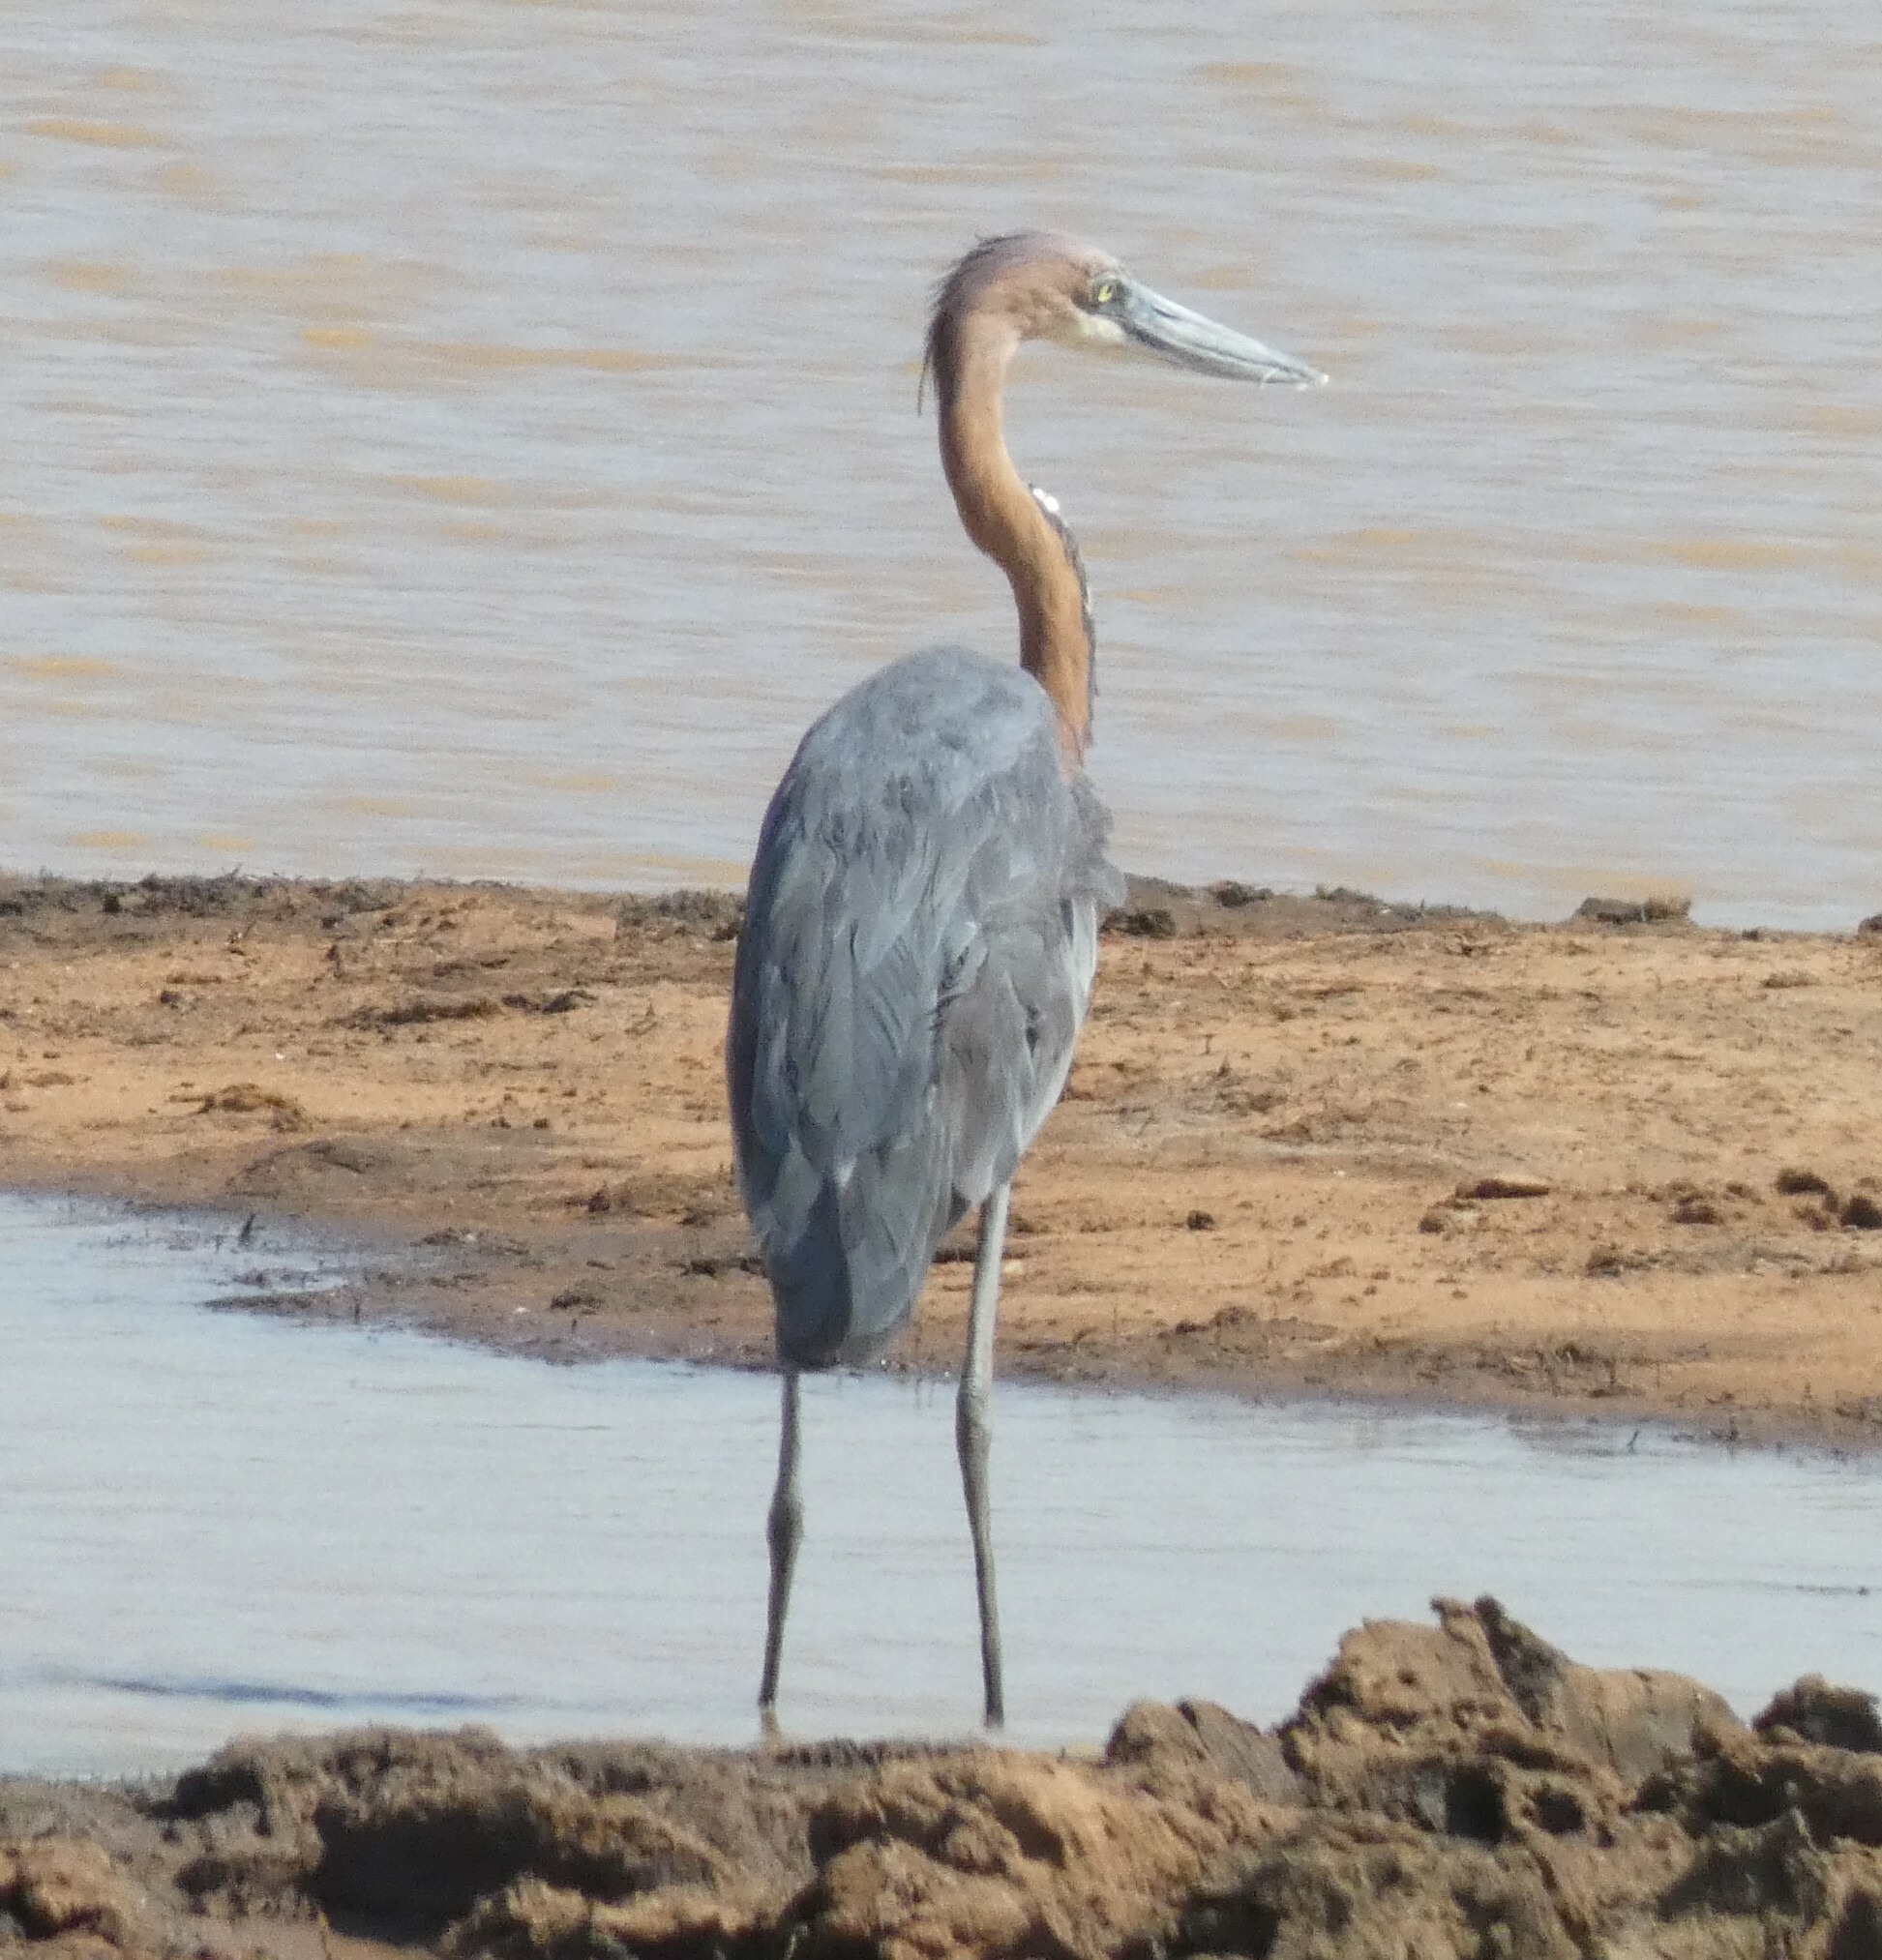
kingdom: Animalia
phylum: Chordata
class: Aves
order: Pelecaniformes
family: Ardeidae
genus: Ardea
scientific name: Ardea goliath
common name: Goliath heron
